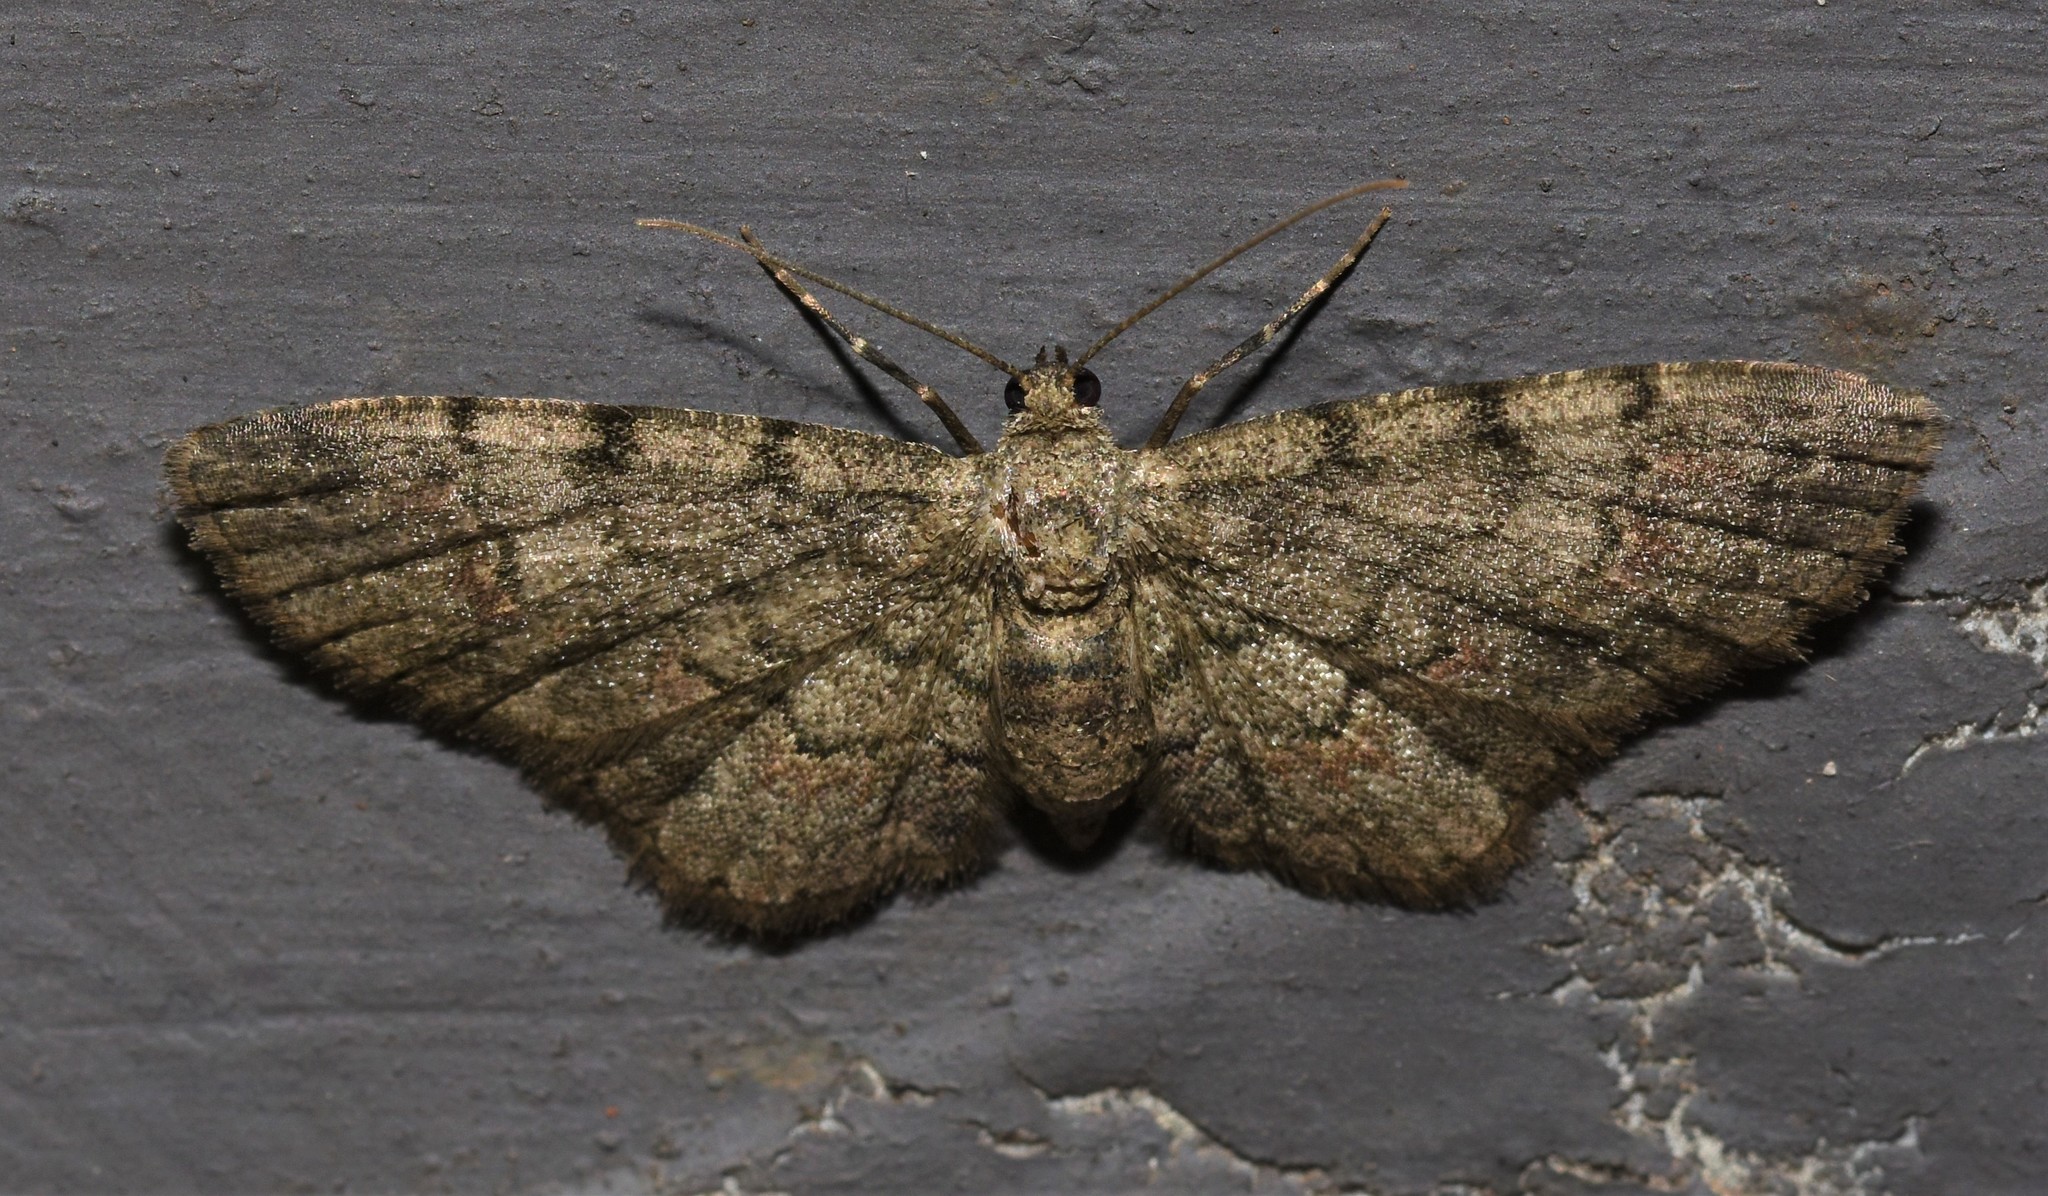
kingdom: Animalia
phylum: Arthropoda
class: Insecta
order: Lepidoptera
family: Geometridae
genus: Glenoides
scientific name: Glenoides texanaria
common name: Texas gray
